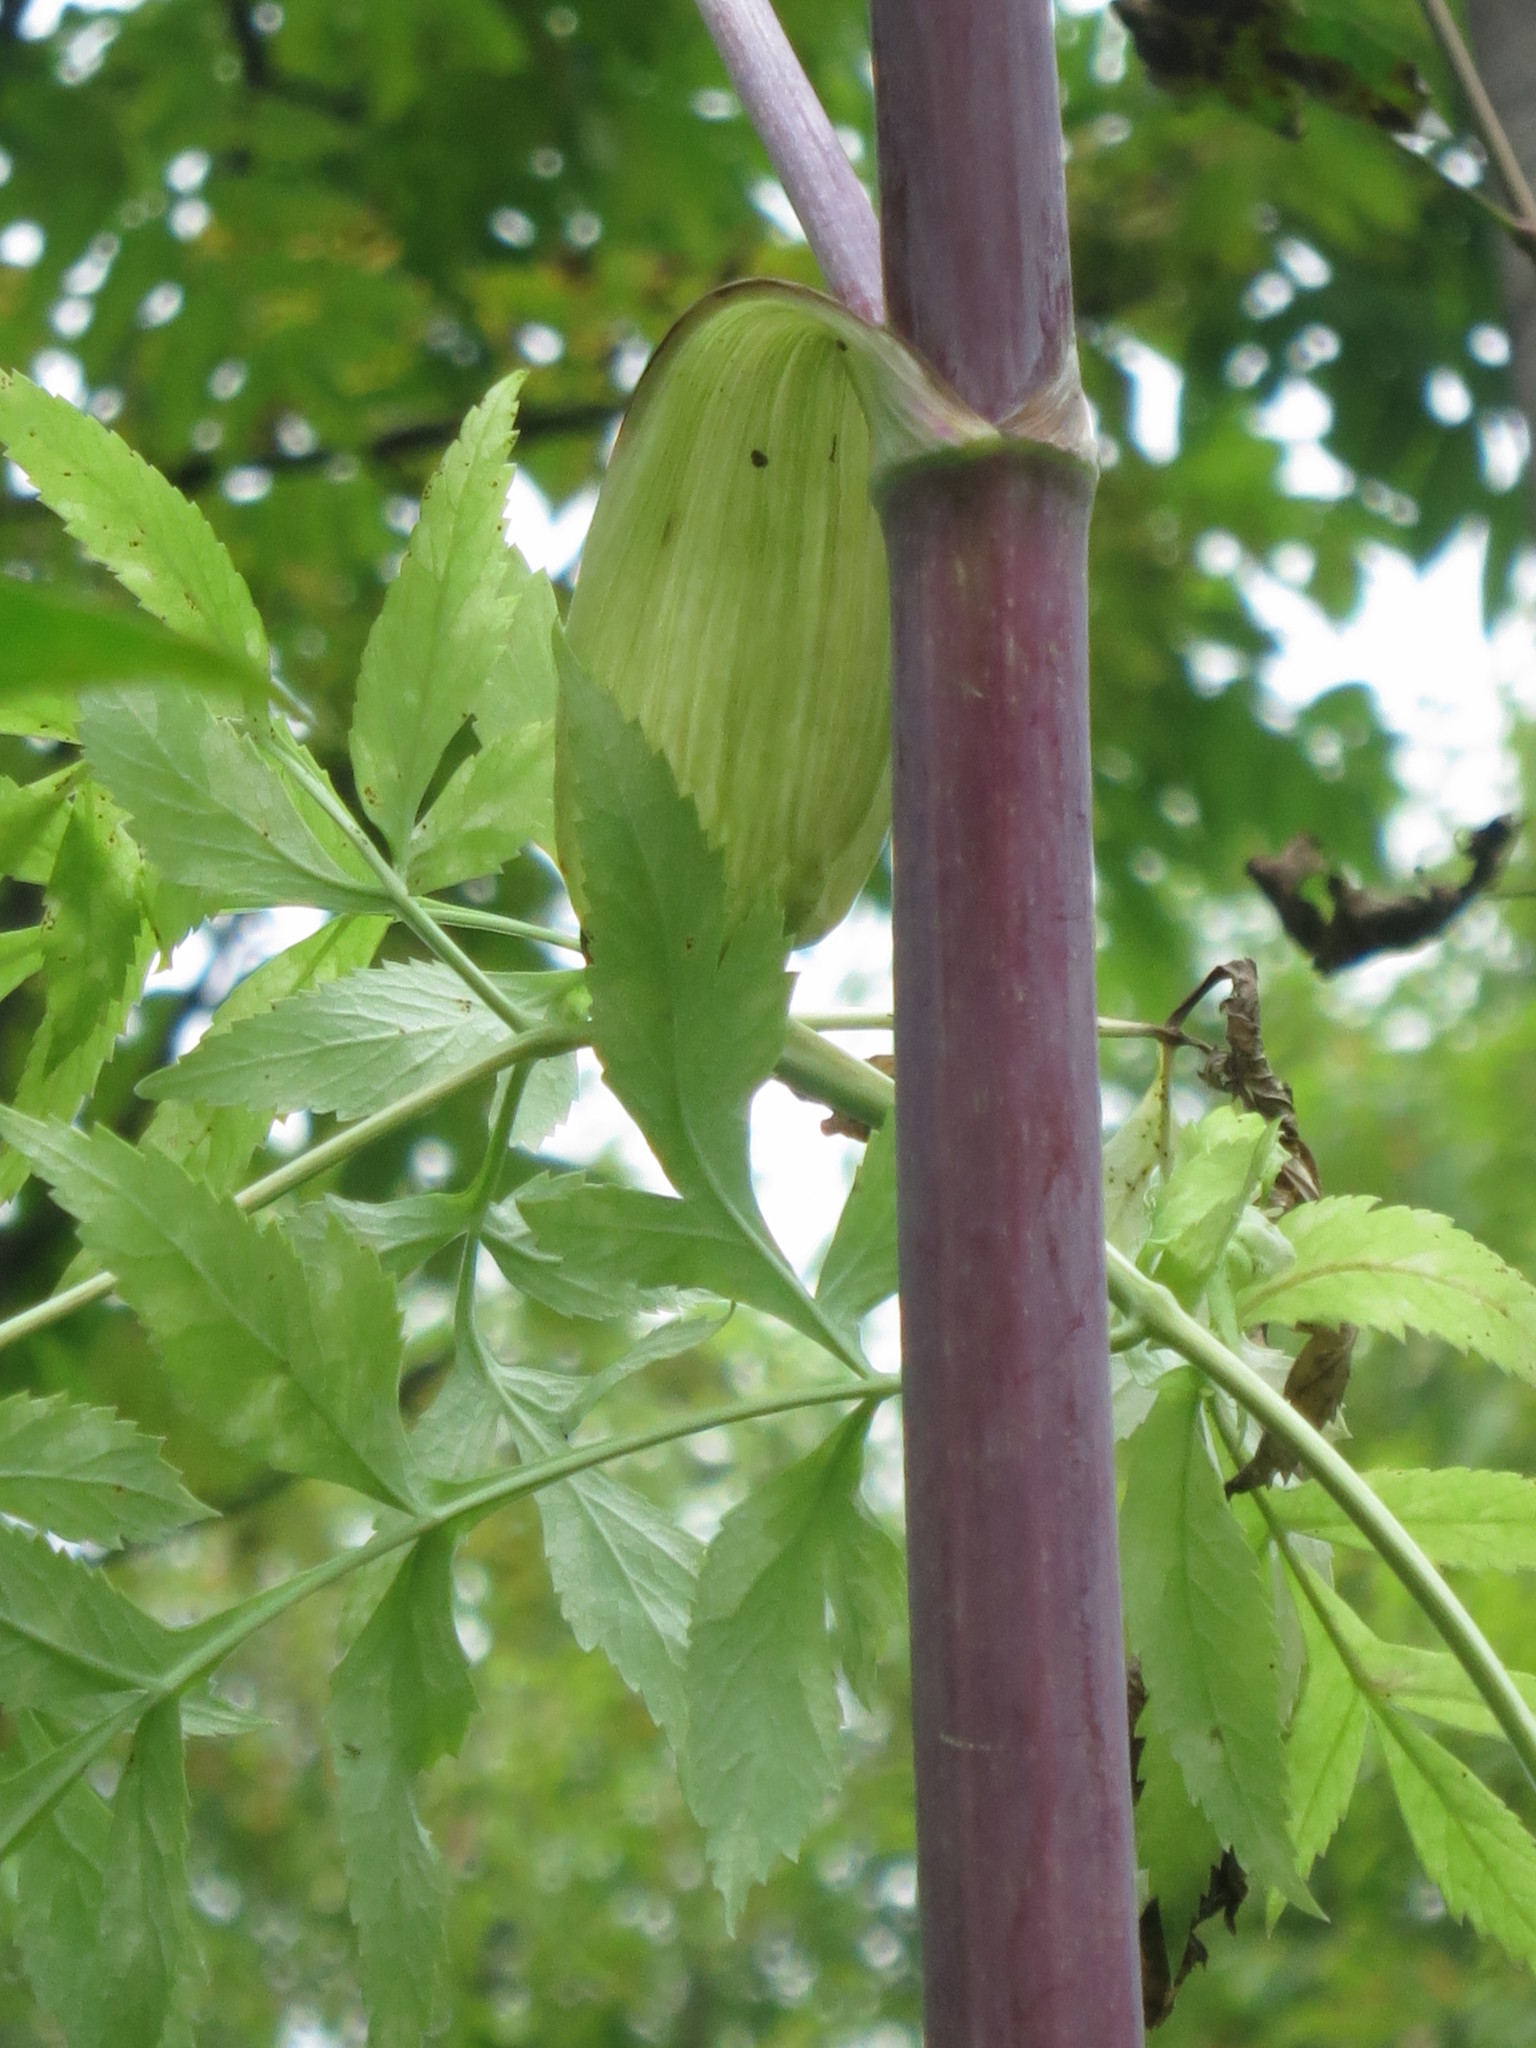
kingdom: Plantae
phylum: Tracheophyta
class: Magnoliopsida
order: Apiales
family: Apiaceae
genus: Angelica
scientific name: Angelica dahurica
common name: Dahurian angelica
